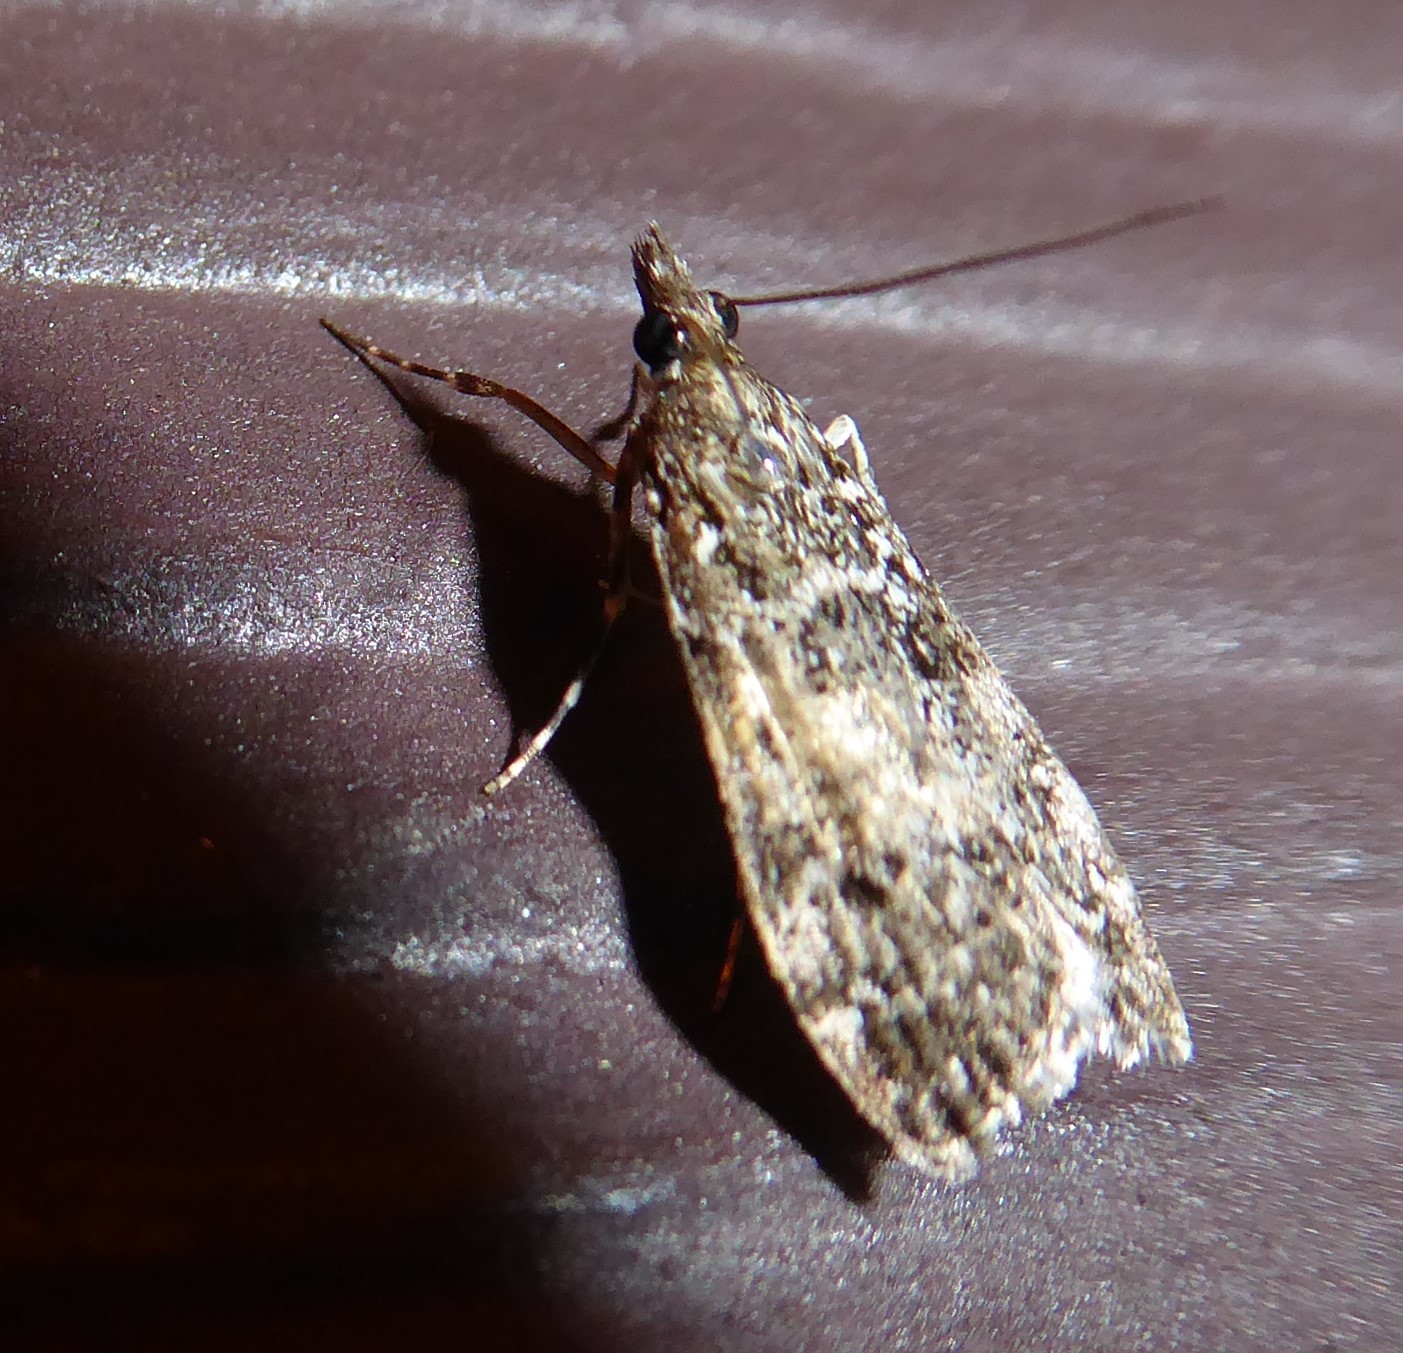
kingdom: Animalia
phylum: Arthropoda
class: Insecta
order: Lepidoptera
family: Crambidae
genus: Eudonia
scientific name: Eudonia philerga
